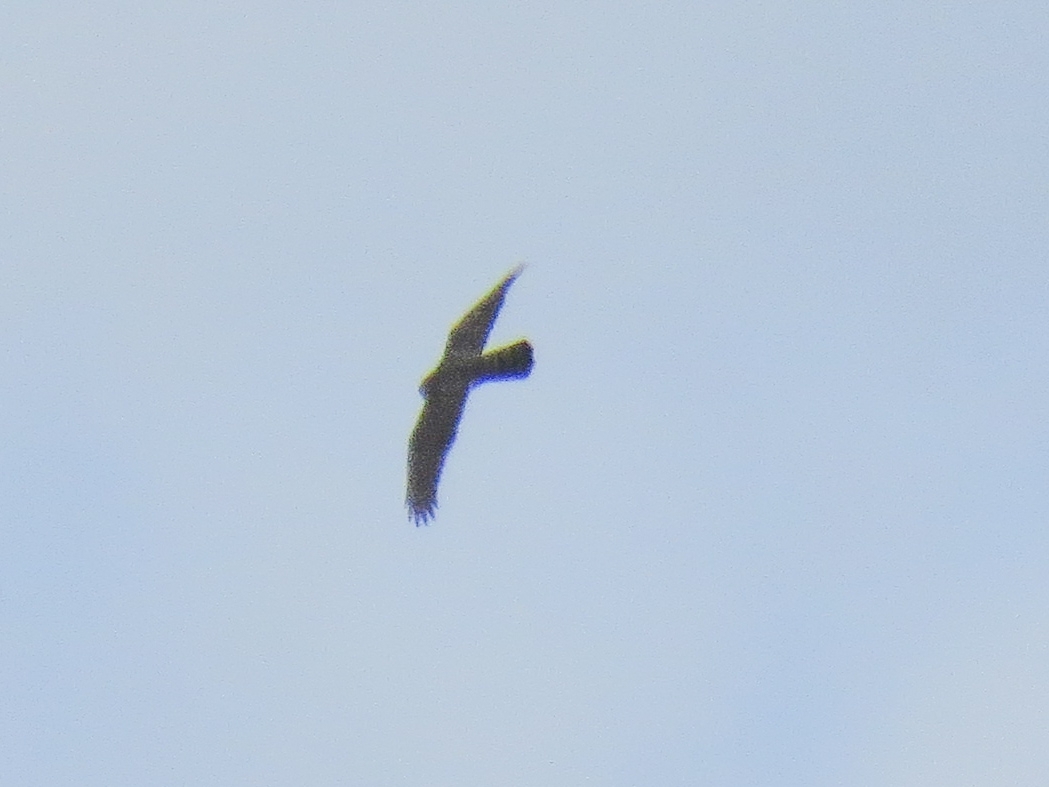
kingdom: Animalia
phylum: Chordata
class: Aves
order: Accipitriformes
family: Accipitridae
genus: Accipiter
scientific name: Accipiter gentilis
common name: Northern goshawk
